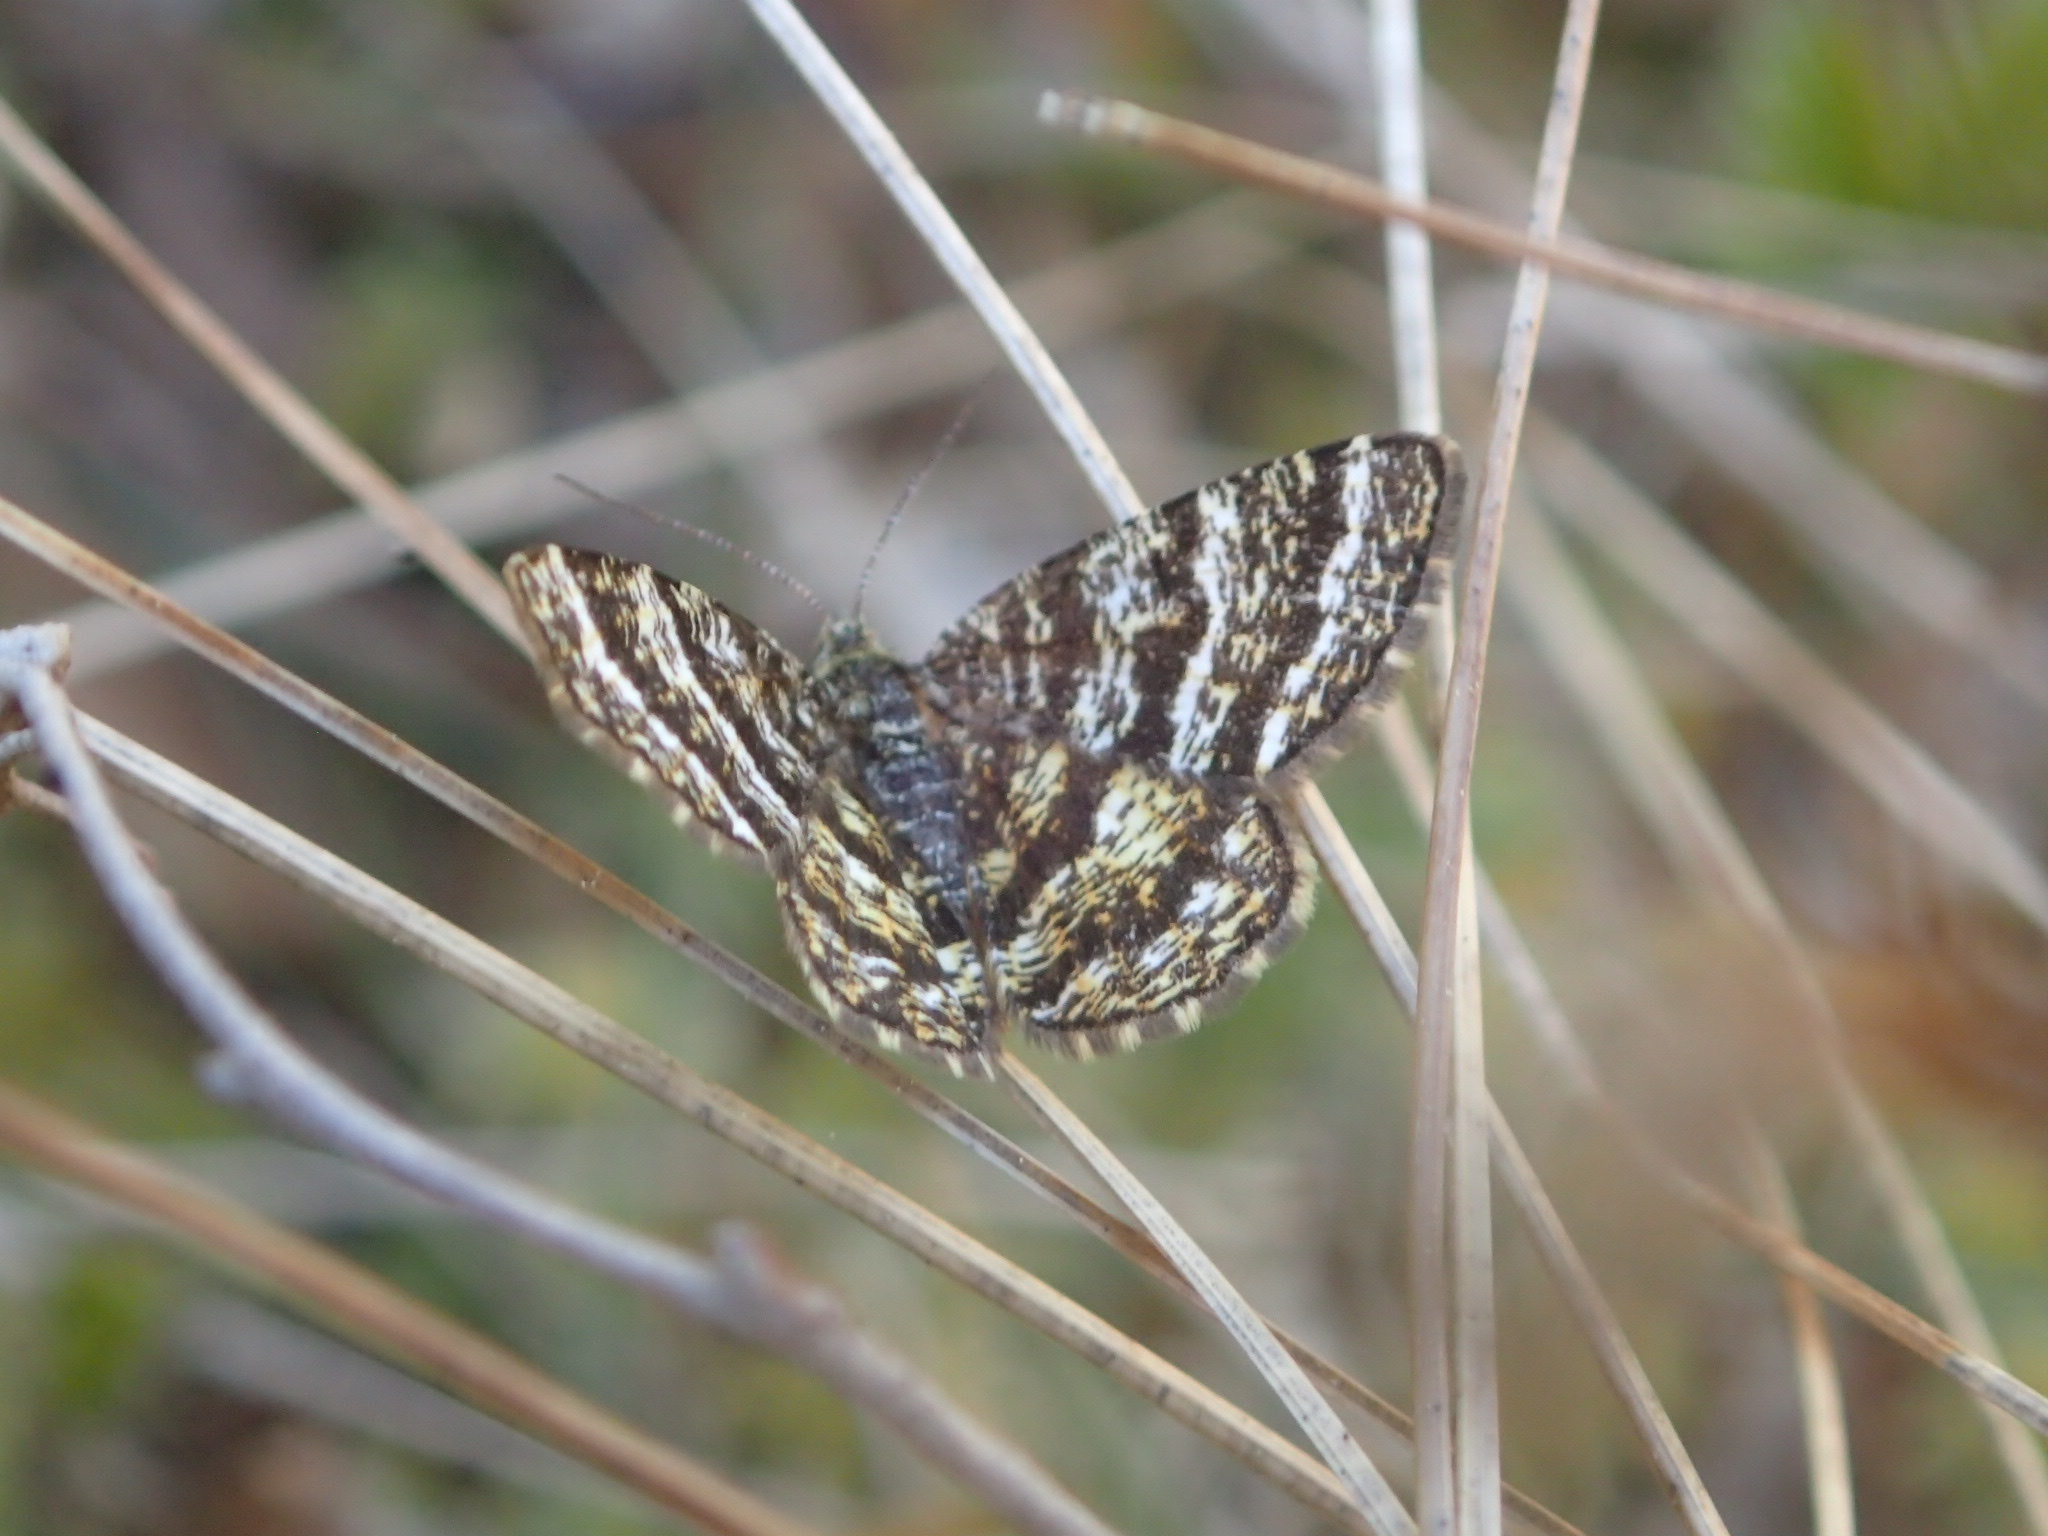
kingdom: Animalia
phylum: Arthropoda
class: Insecta
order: Lepidoptera
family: Geometridae
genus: Macaria
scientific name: Macaria truncataria
